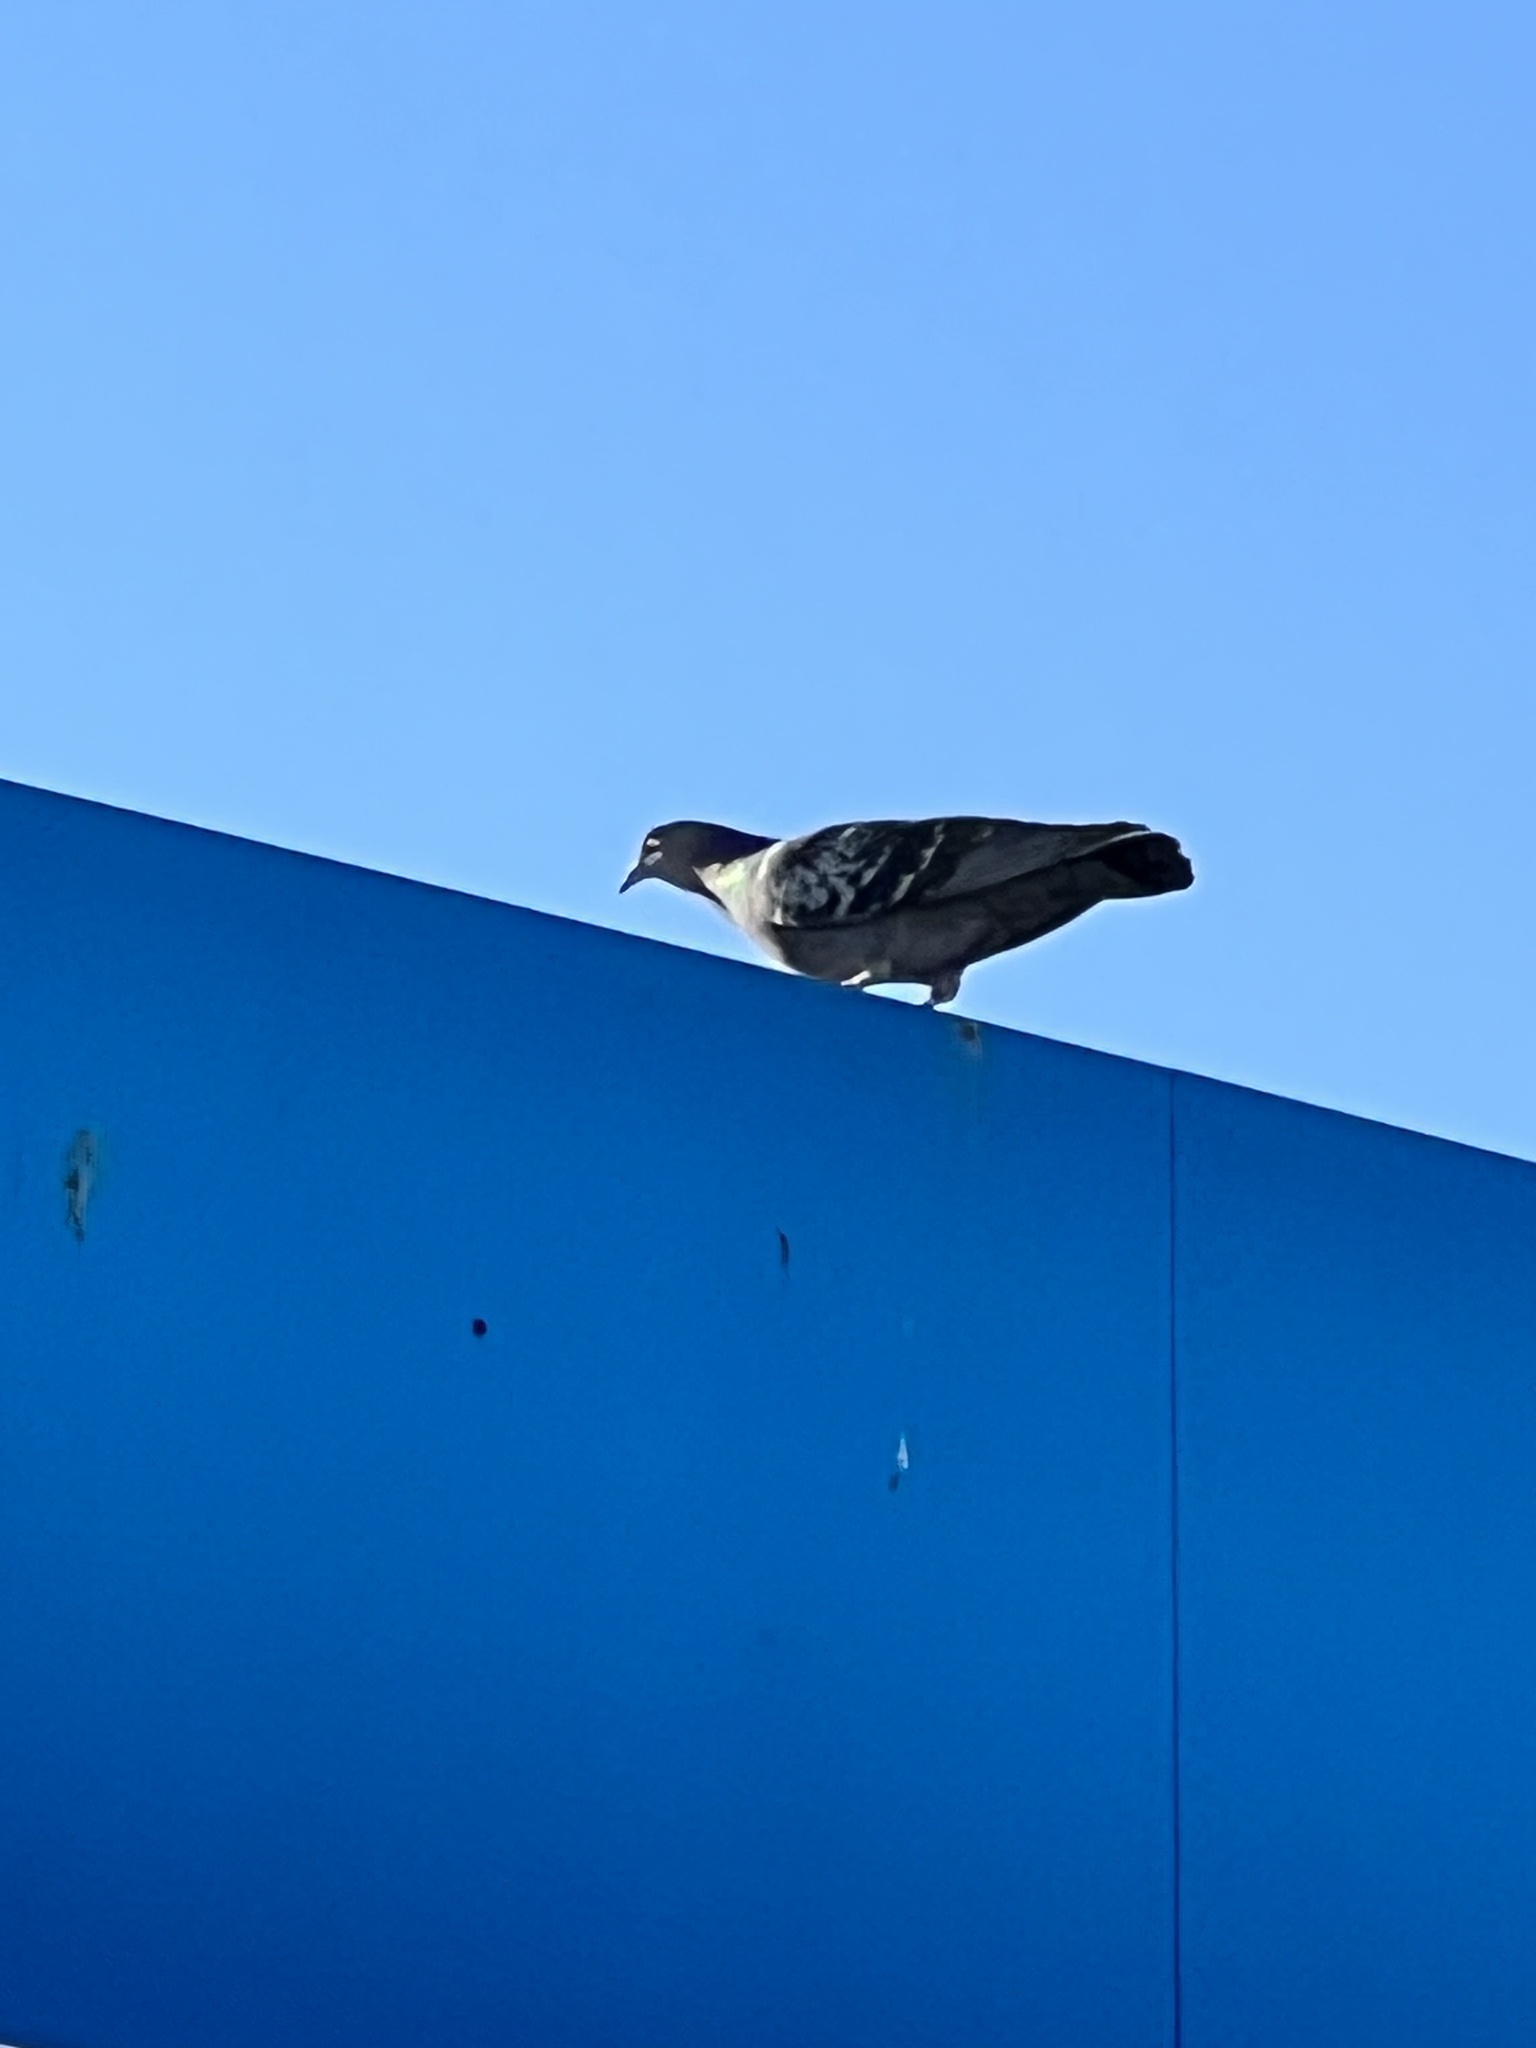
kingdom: Animalia
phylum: Chordata
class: Aves
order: Columbiformes
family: Columbidae
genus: Columba
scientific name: Columba livia
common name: Rock pigeon
